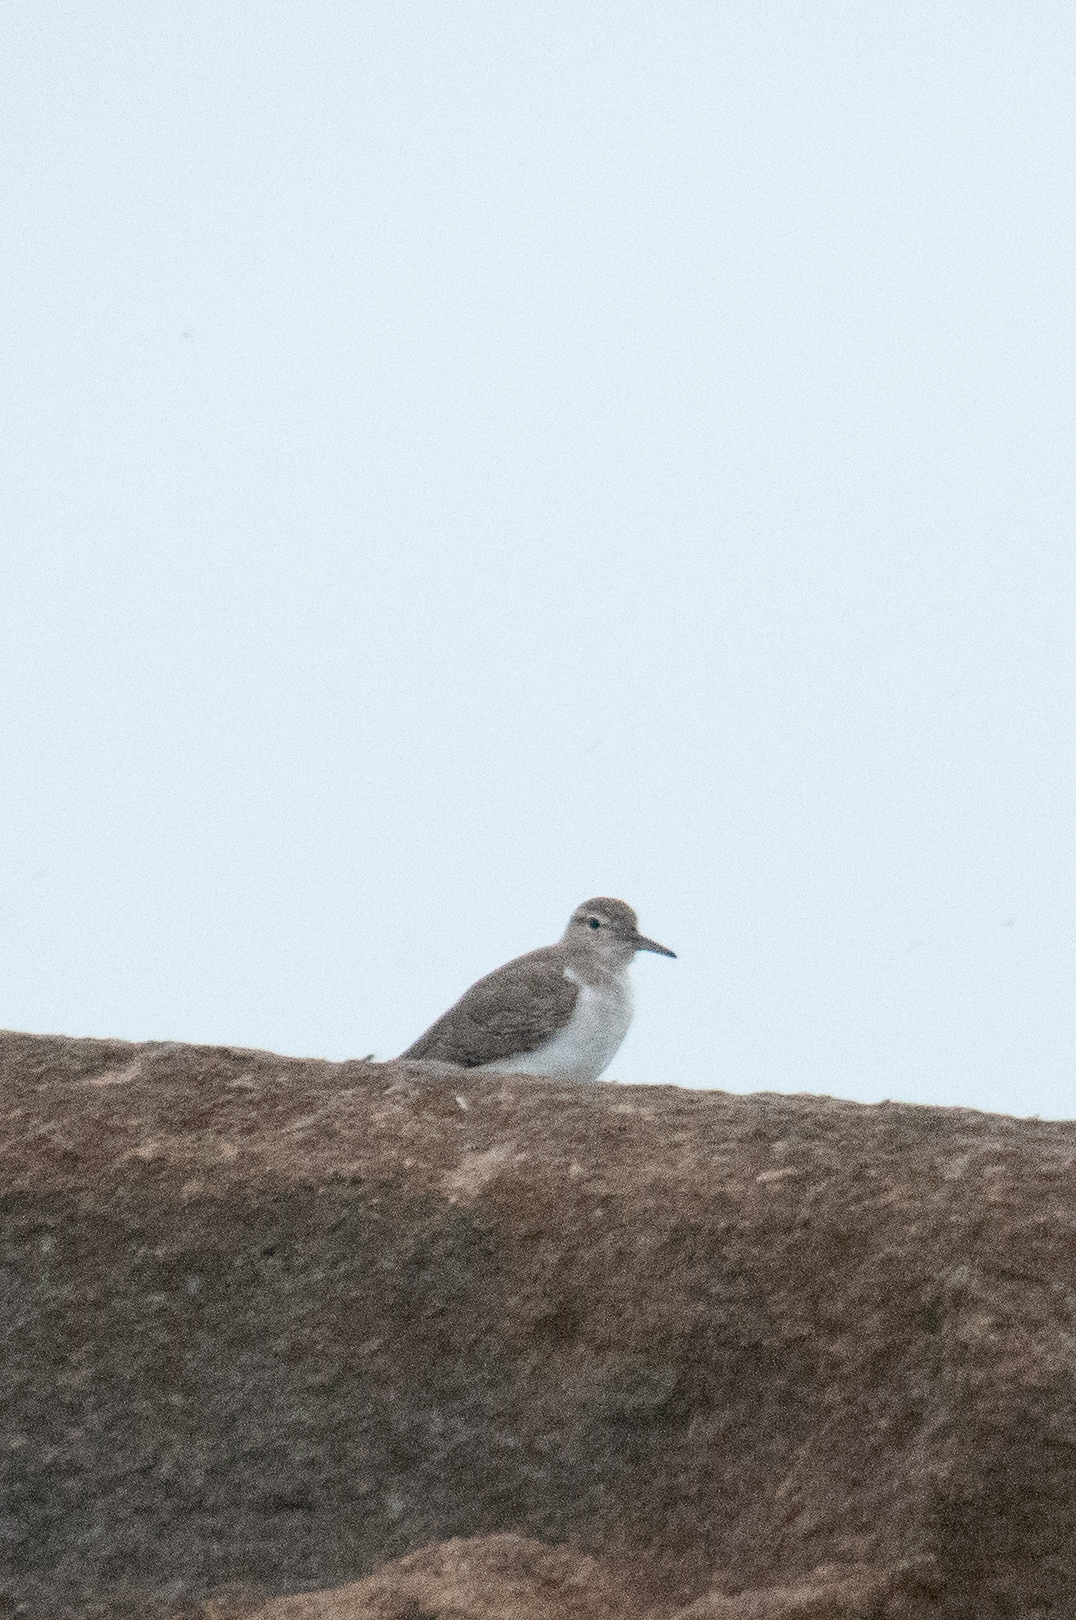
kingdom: Animalia
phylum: Chordata
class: Aves
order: Charadriiformes
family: Scolopacidae
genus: Actitis
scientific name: Actitis macularius
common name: Spotted sandpiper
